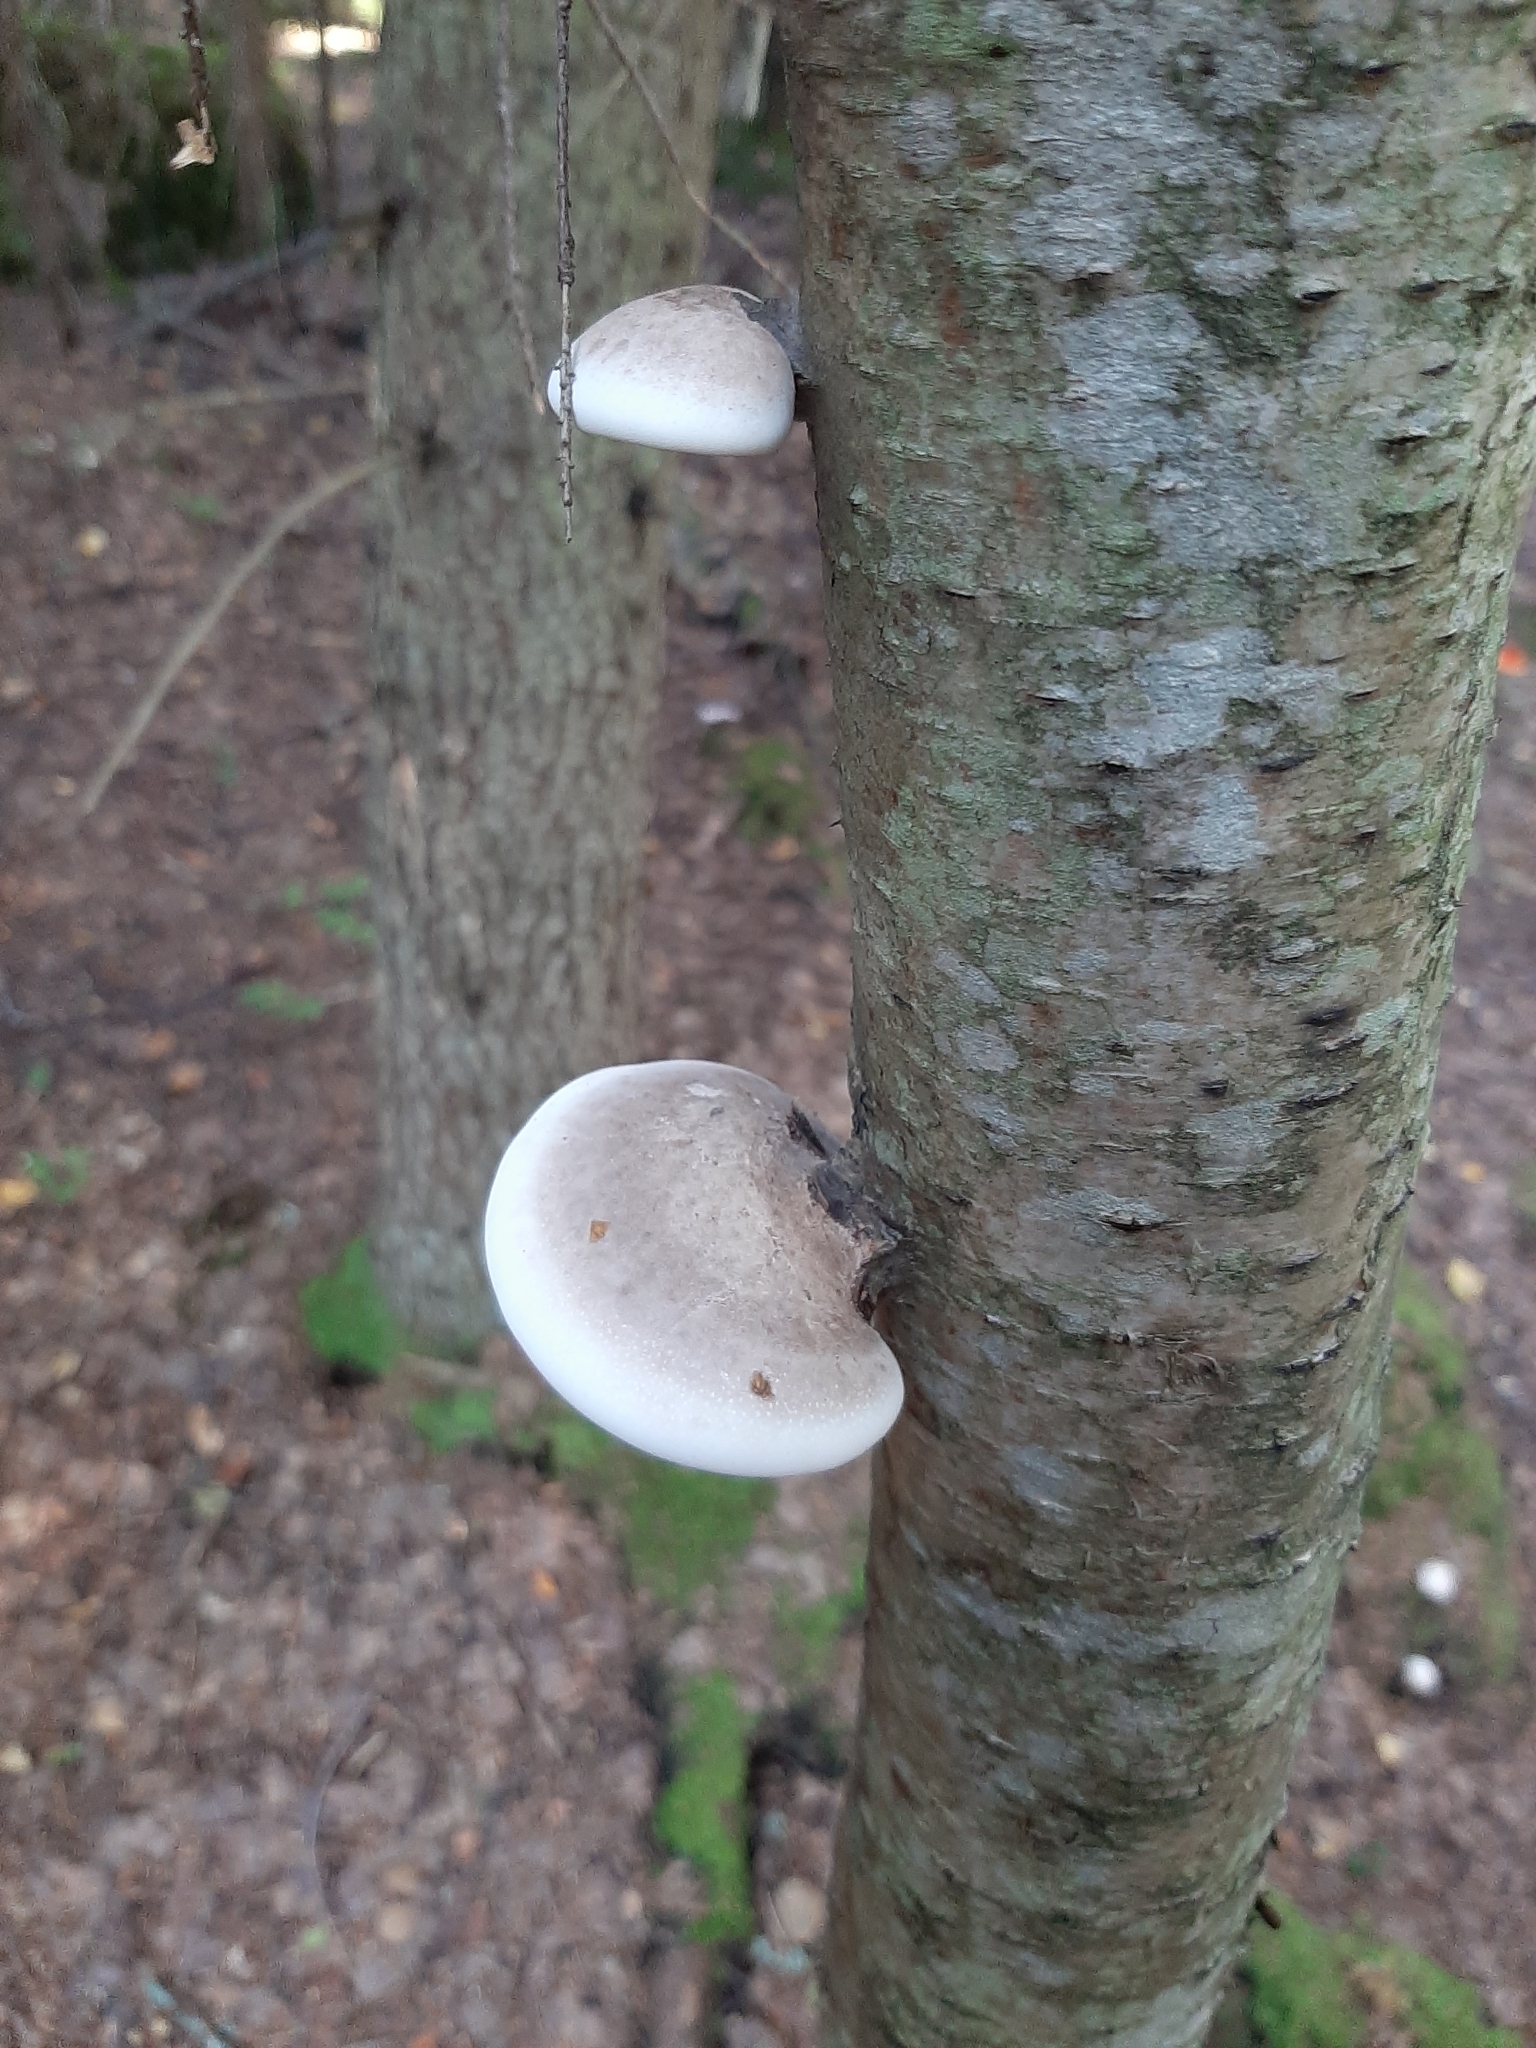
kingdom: Fungi
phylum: Basidiomycota
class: Agaricomycetes
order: Polyporales
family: Fomitopsidaceae
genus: Fomitopsis
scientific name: Fomitopsis betulina
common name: Birch polypore
